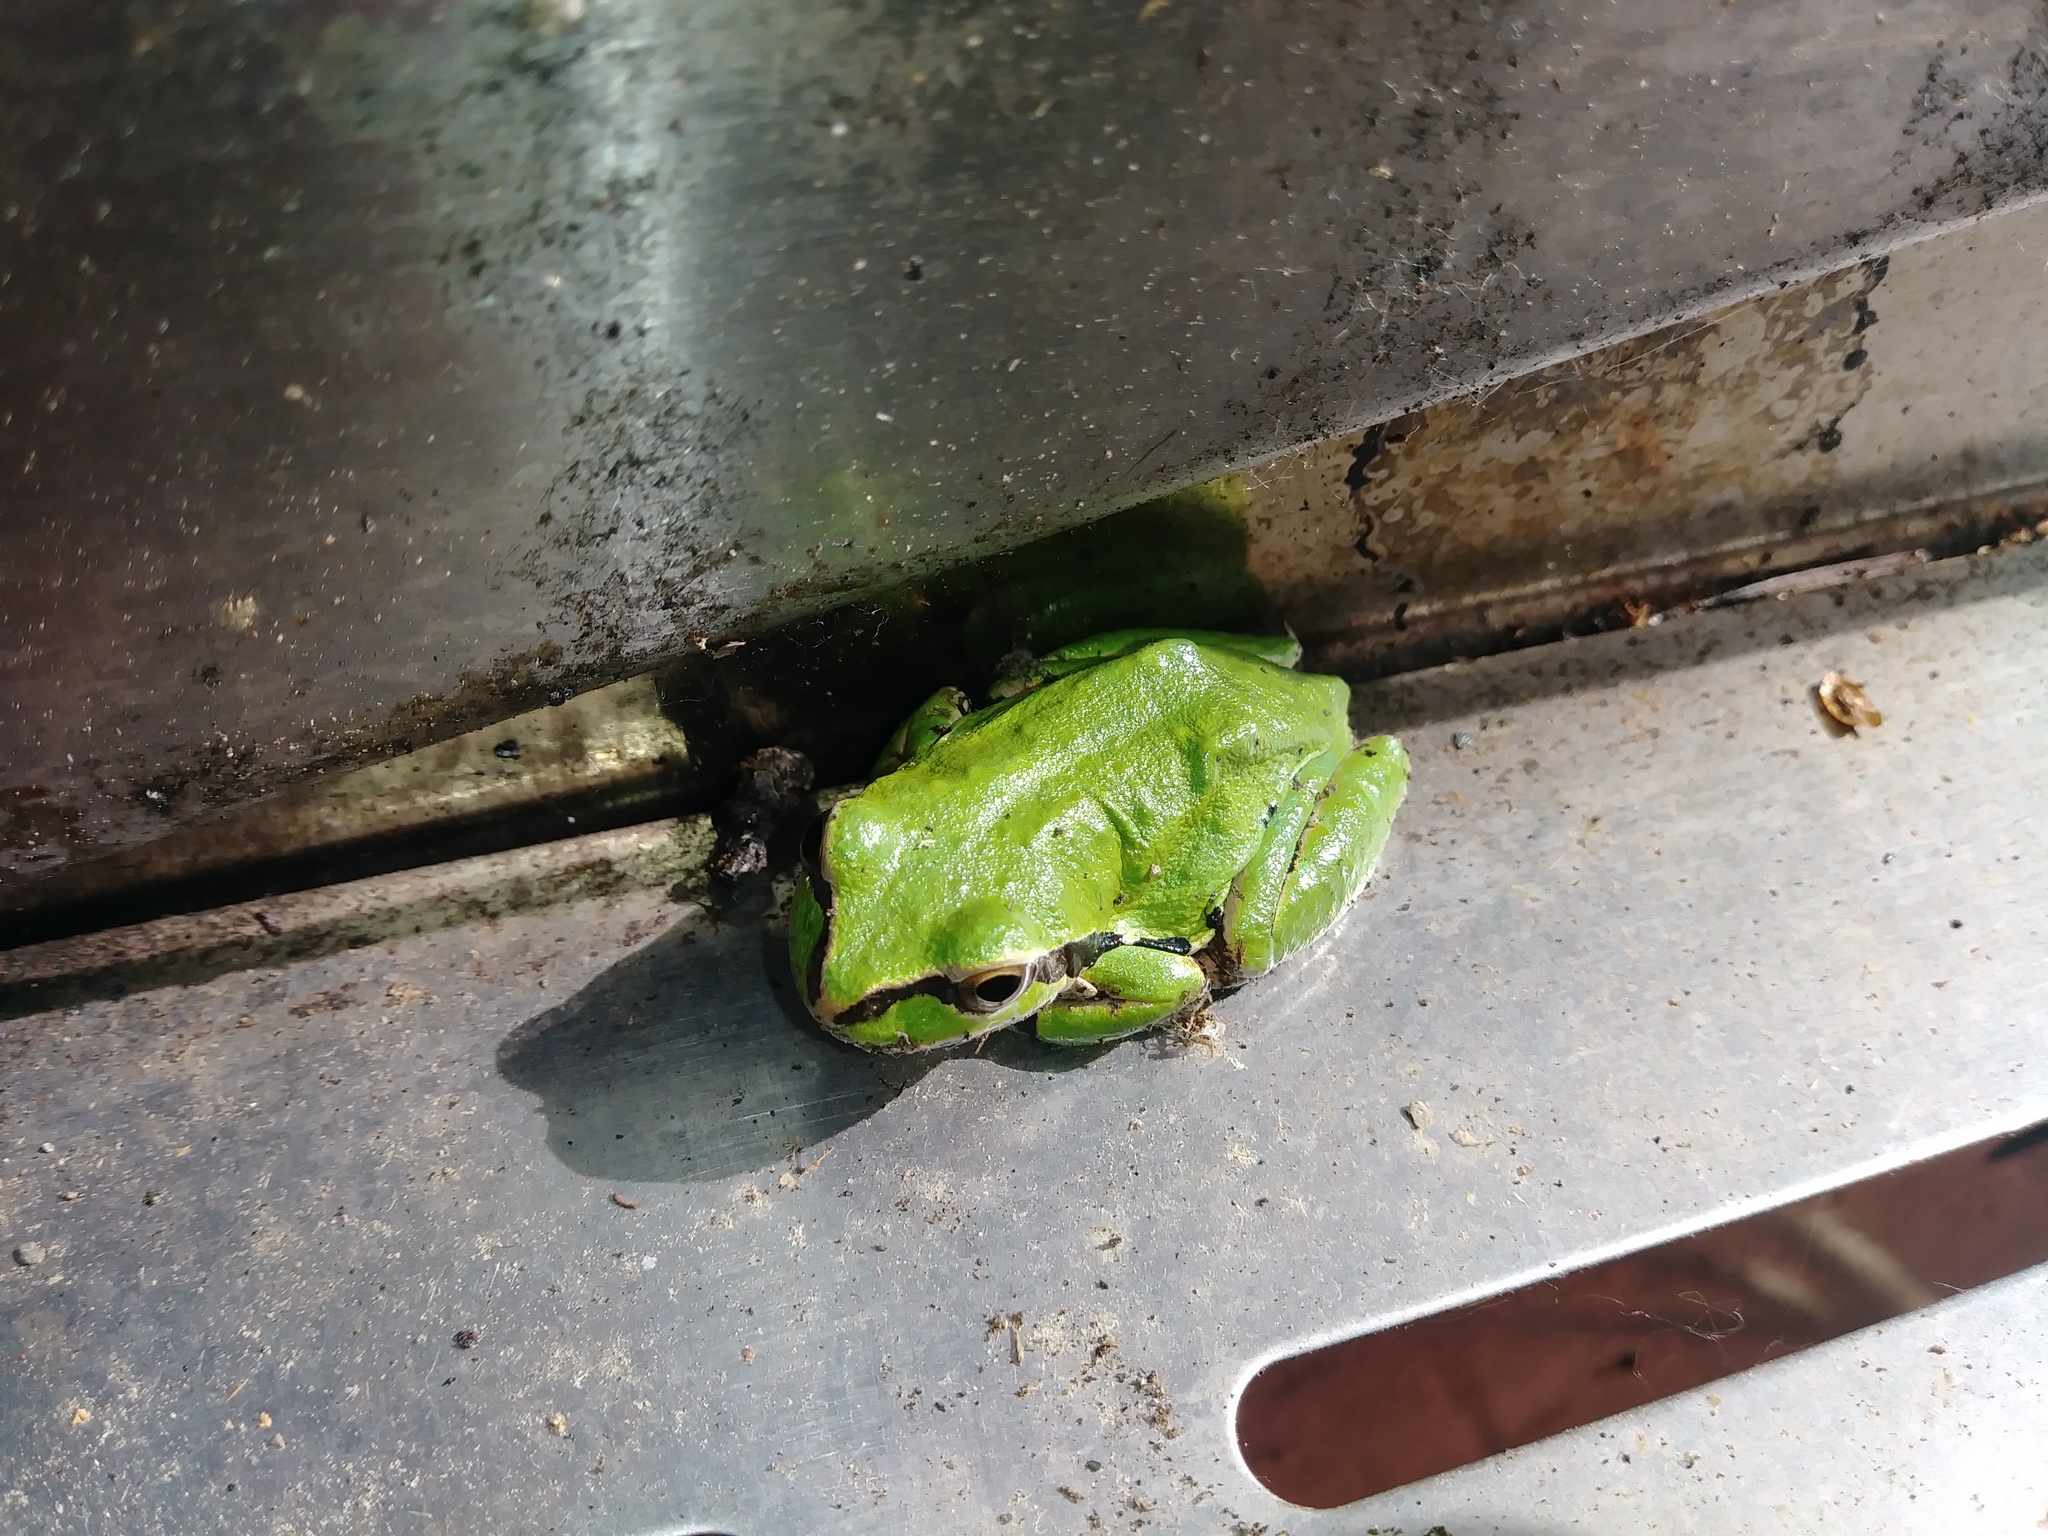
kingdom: Animalia
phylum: Chordata
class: Amphibia
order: Anura
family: Hylidae
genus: Pseudacris
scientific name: Pseudacris regilla
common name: Pacific chorus frog
